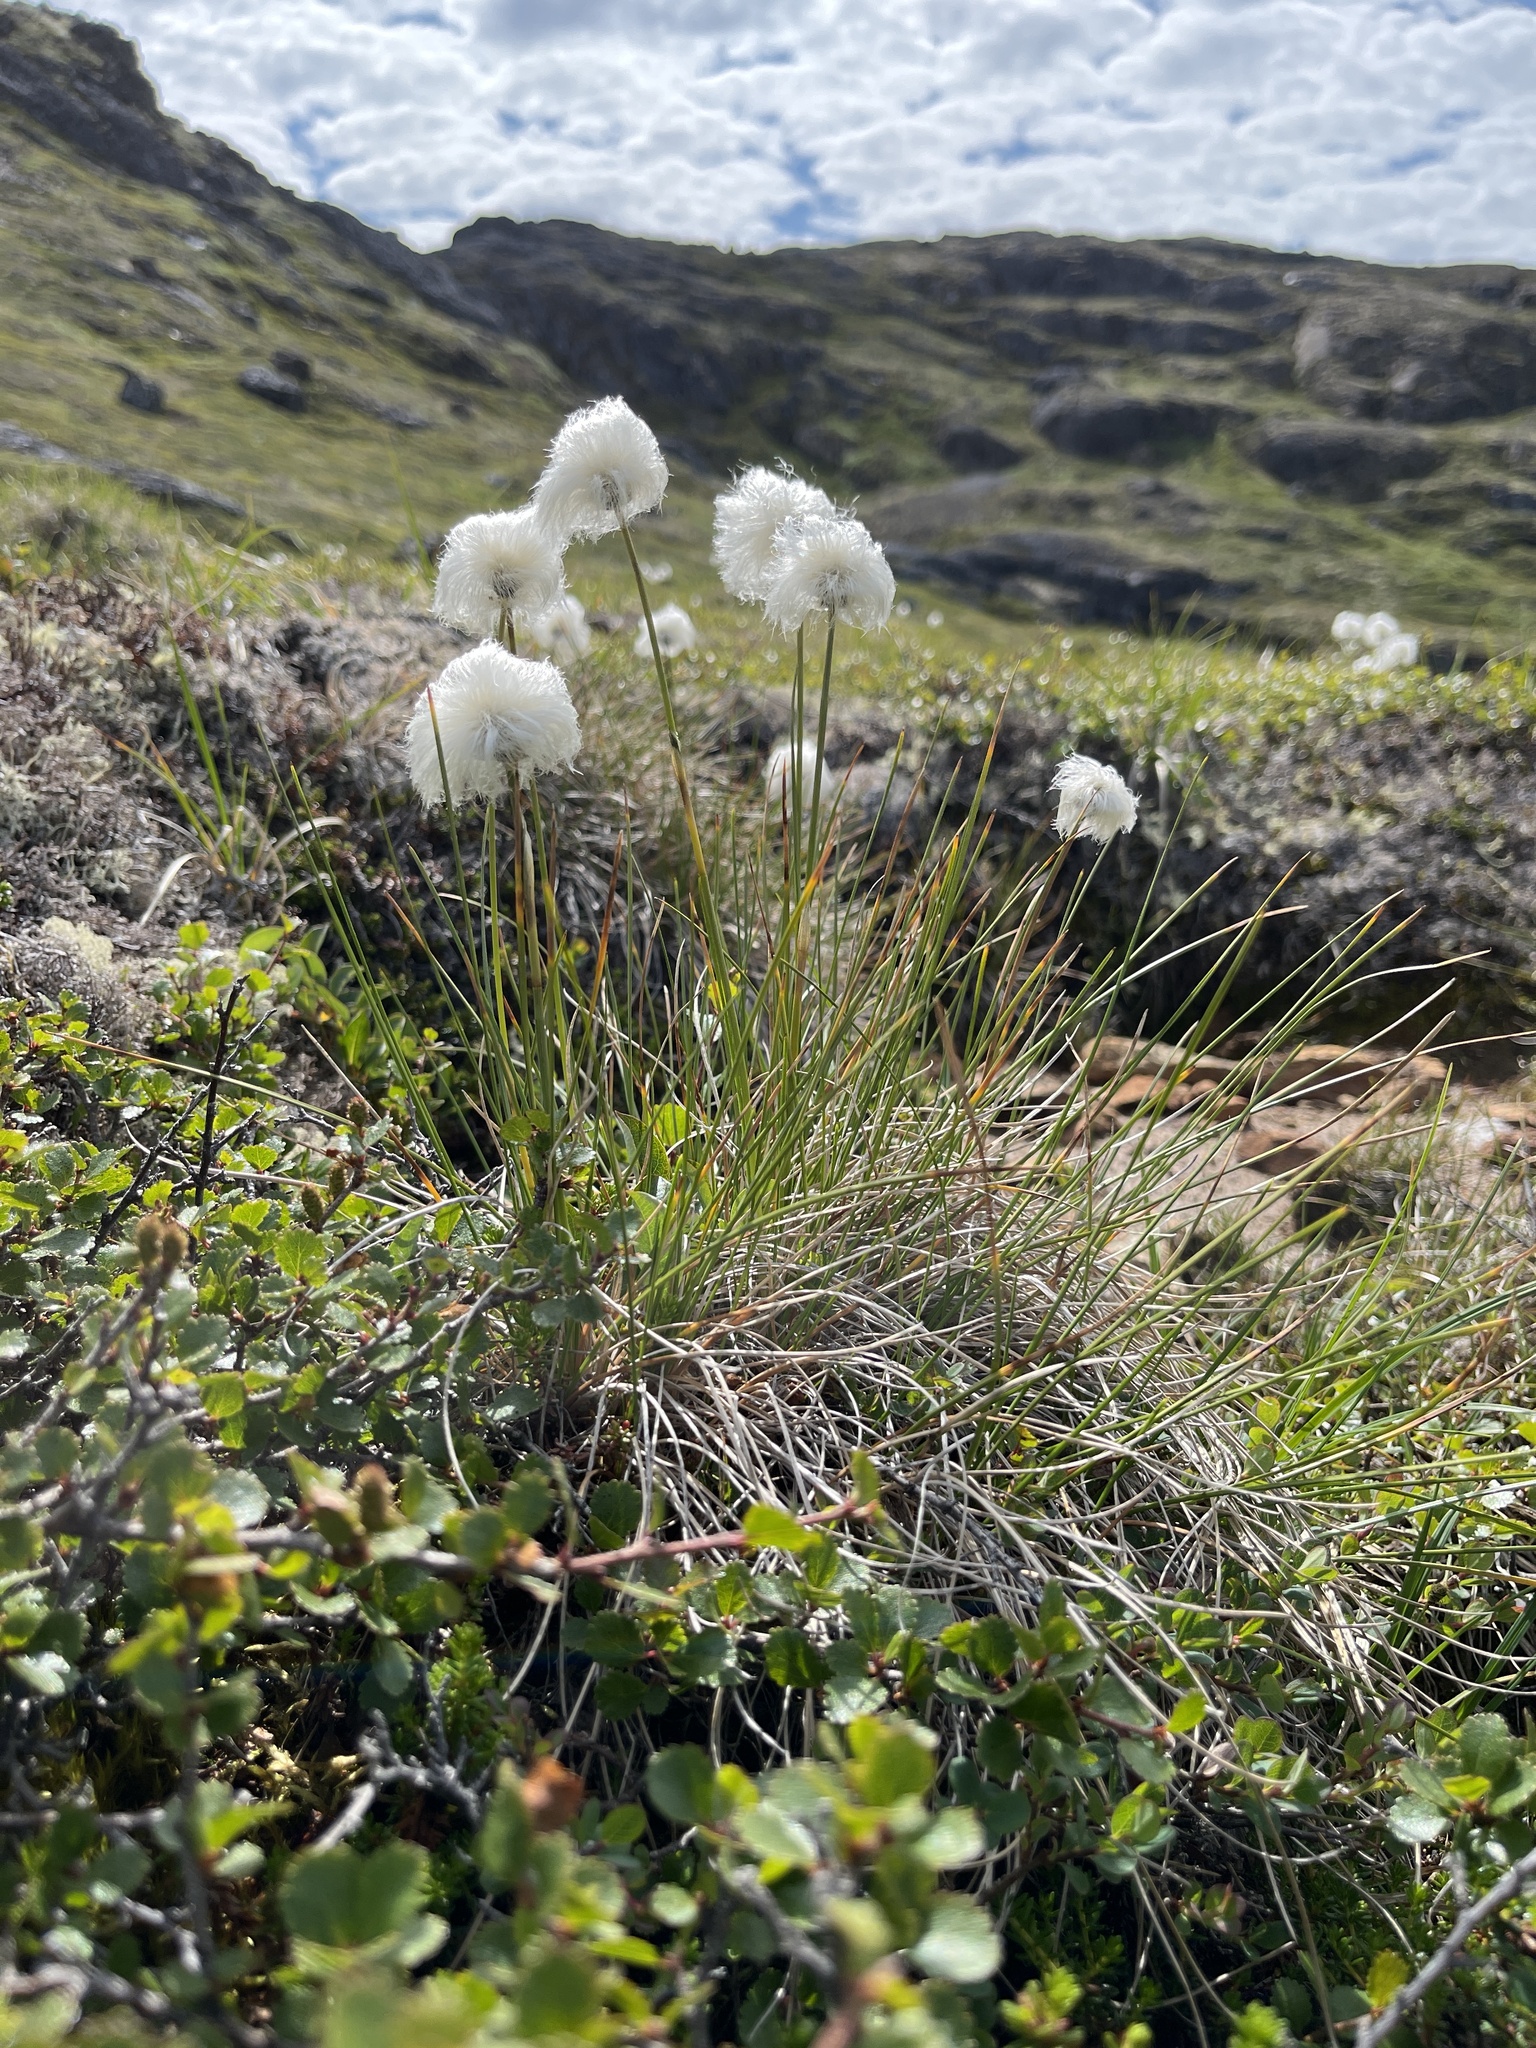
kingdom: Plantae
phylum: Tracheophyta
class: Liliopsida
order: Poales
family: Cyperaceae
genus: Eriophorum
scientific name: Eriophorum vaginatum
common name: Hare's-tail cottongrass
